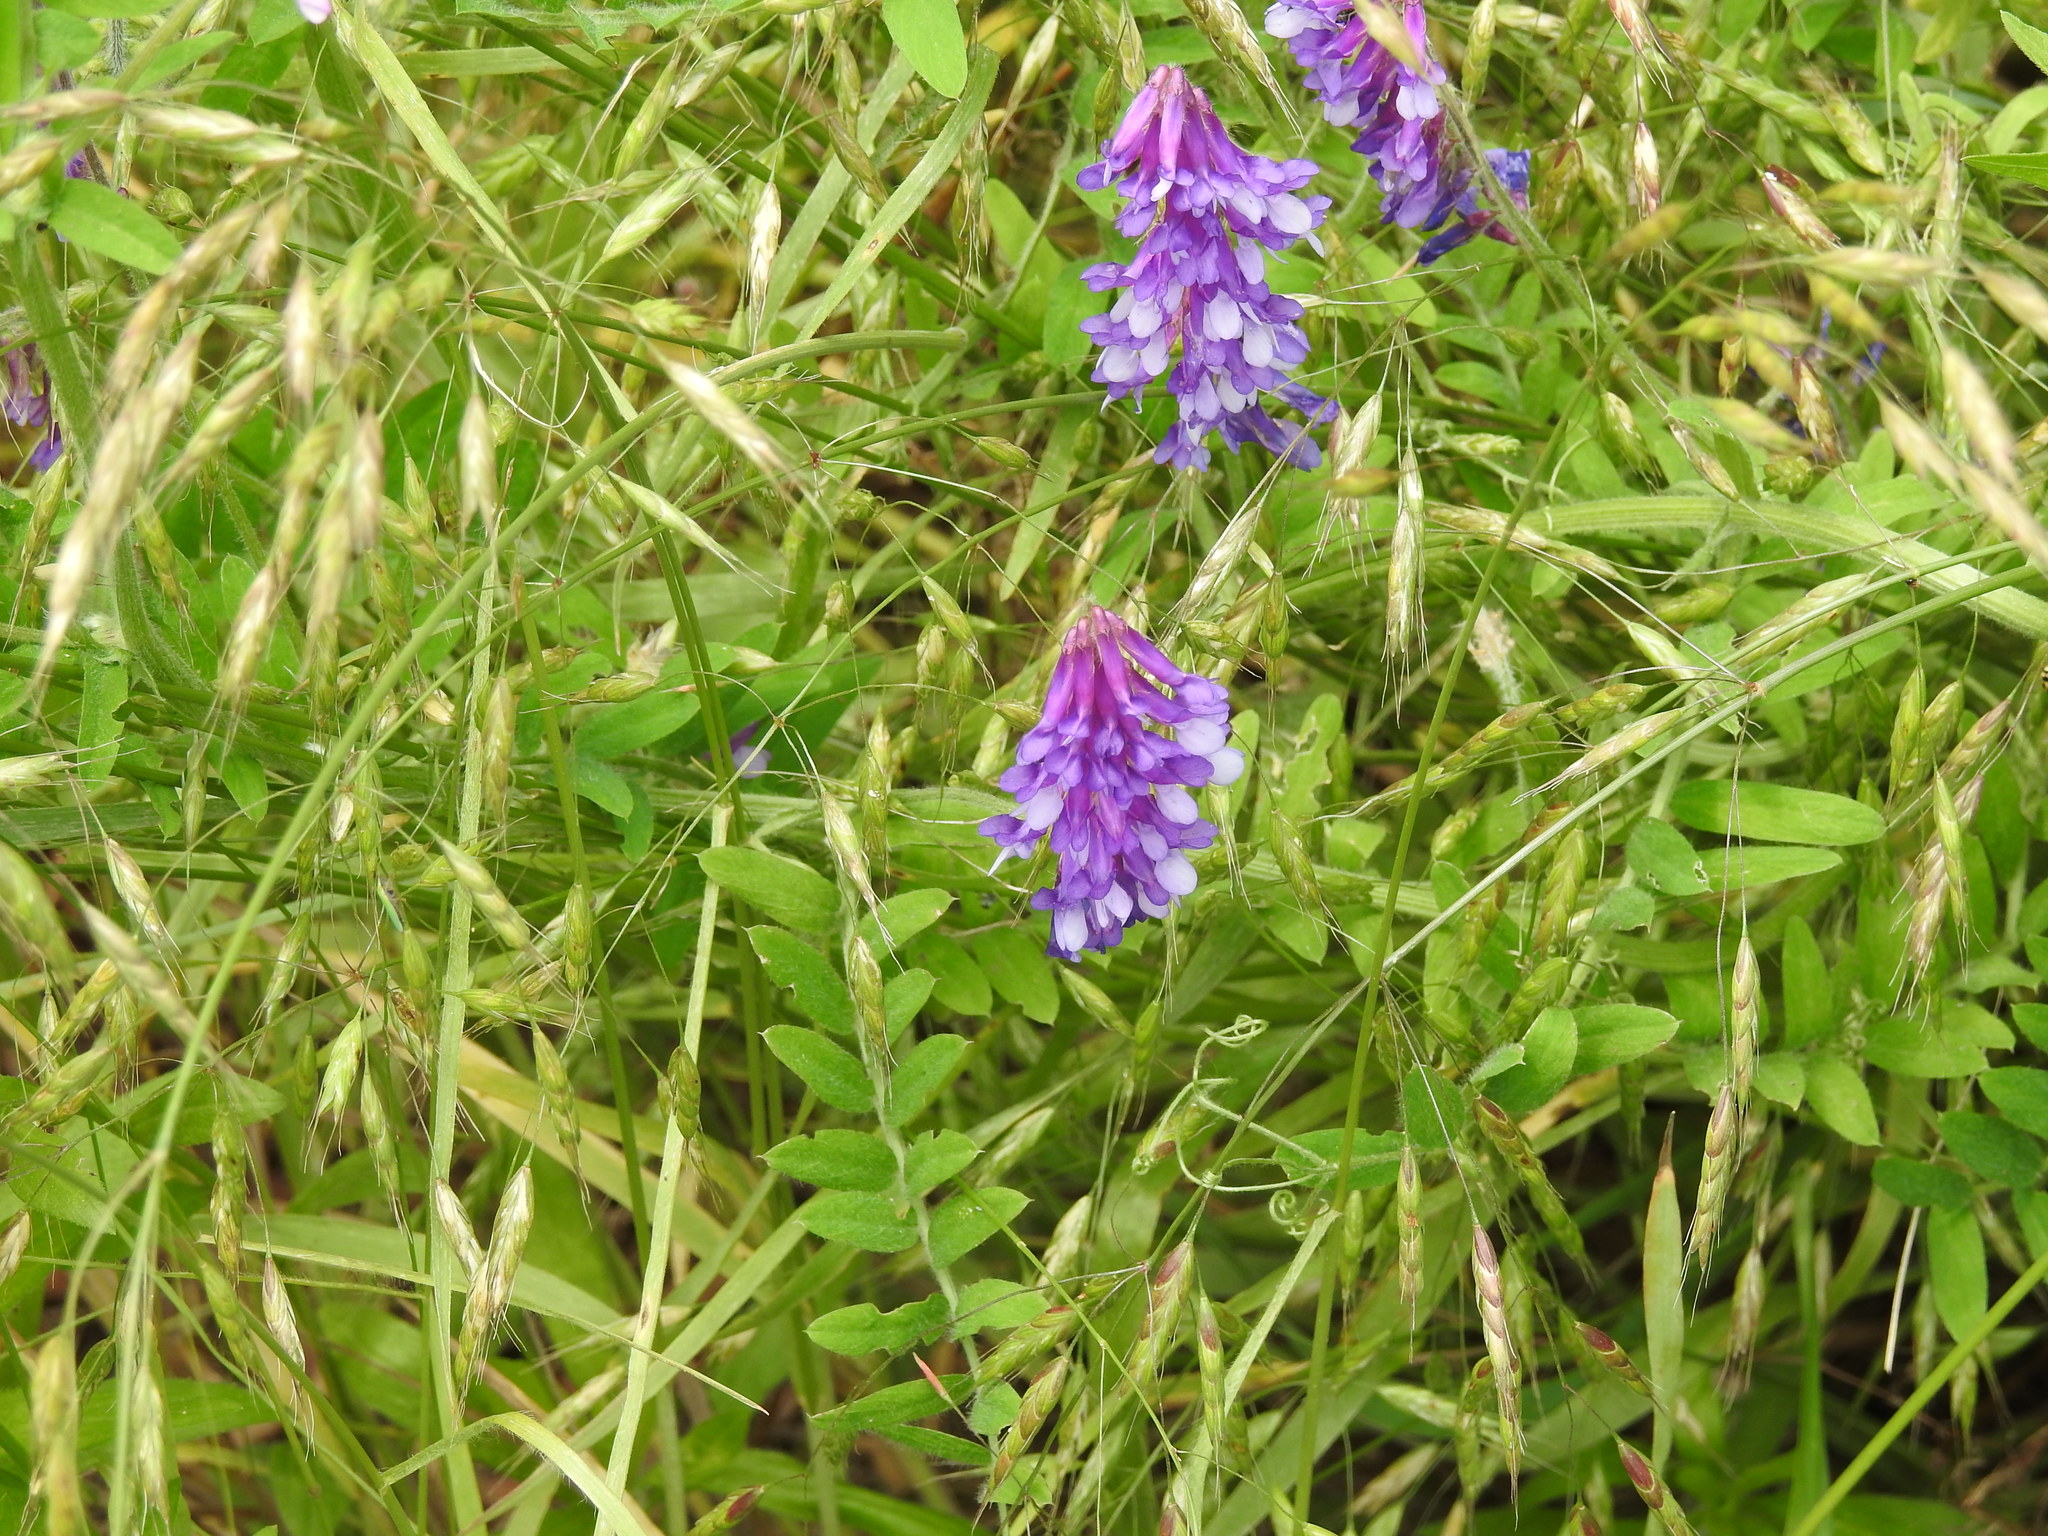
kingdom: Plantae
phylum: Tracheophyta
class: Magnoliopsida
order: Fabales
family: Fabaceae
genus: Vicia
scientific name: Vicia villosa
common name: Fodder vetch
